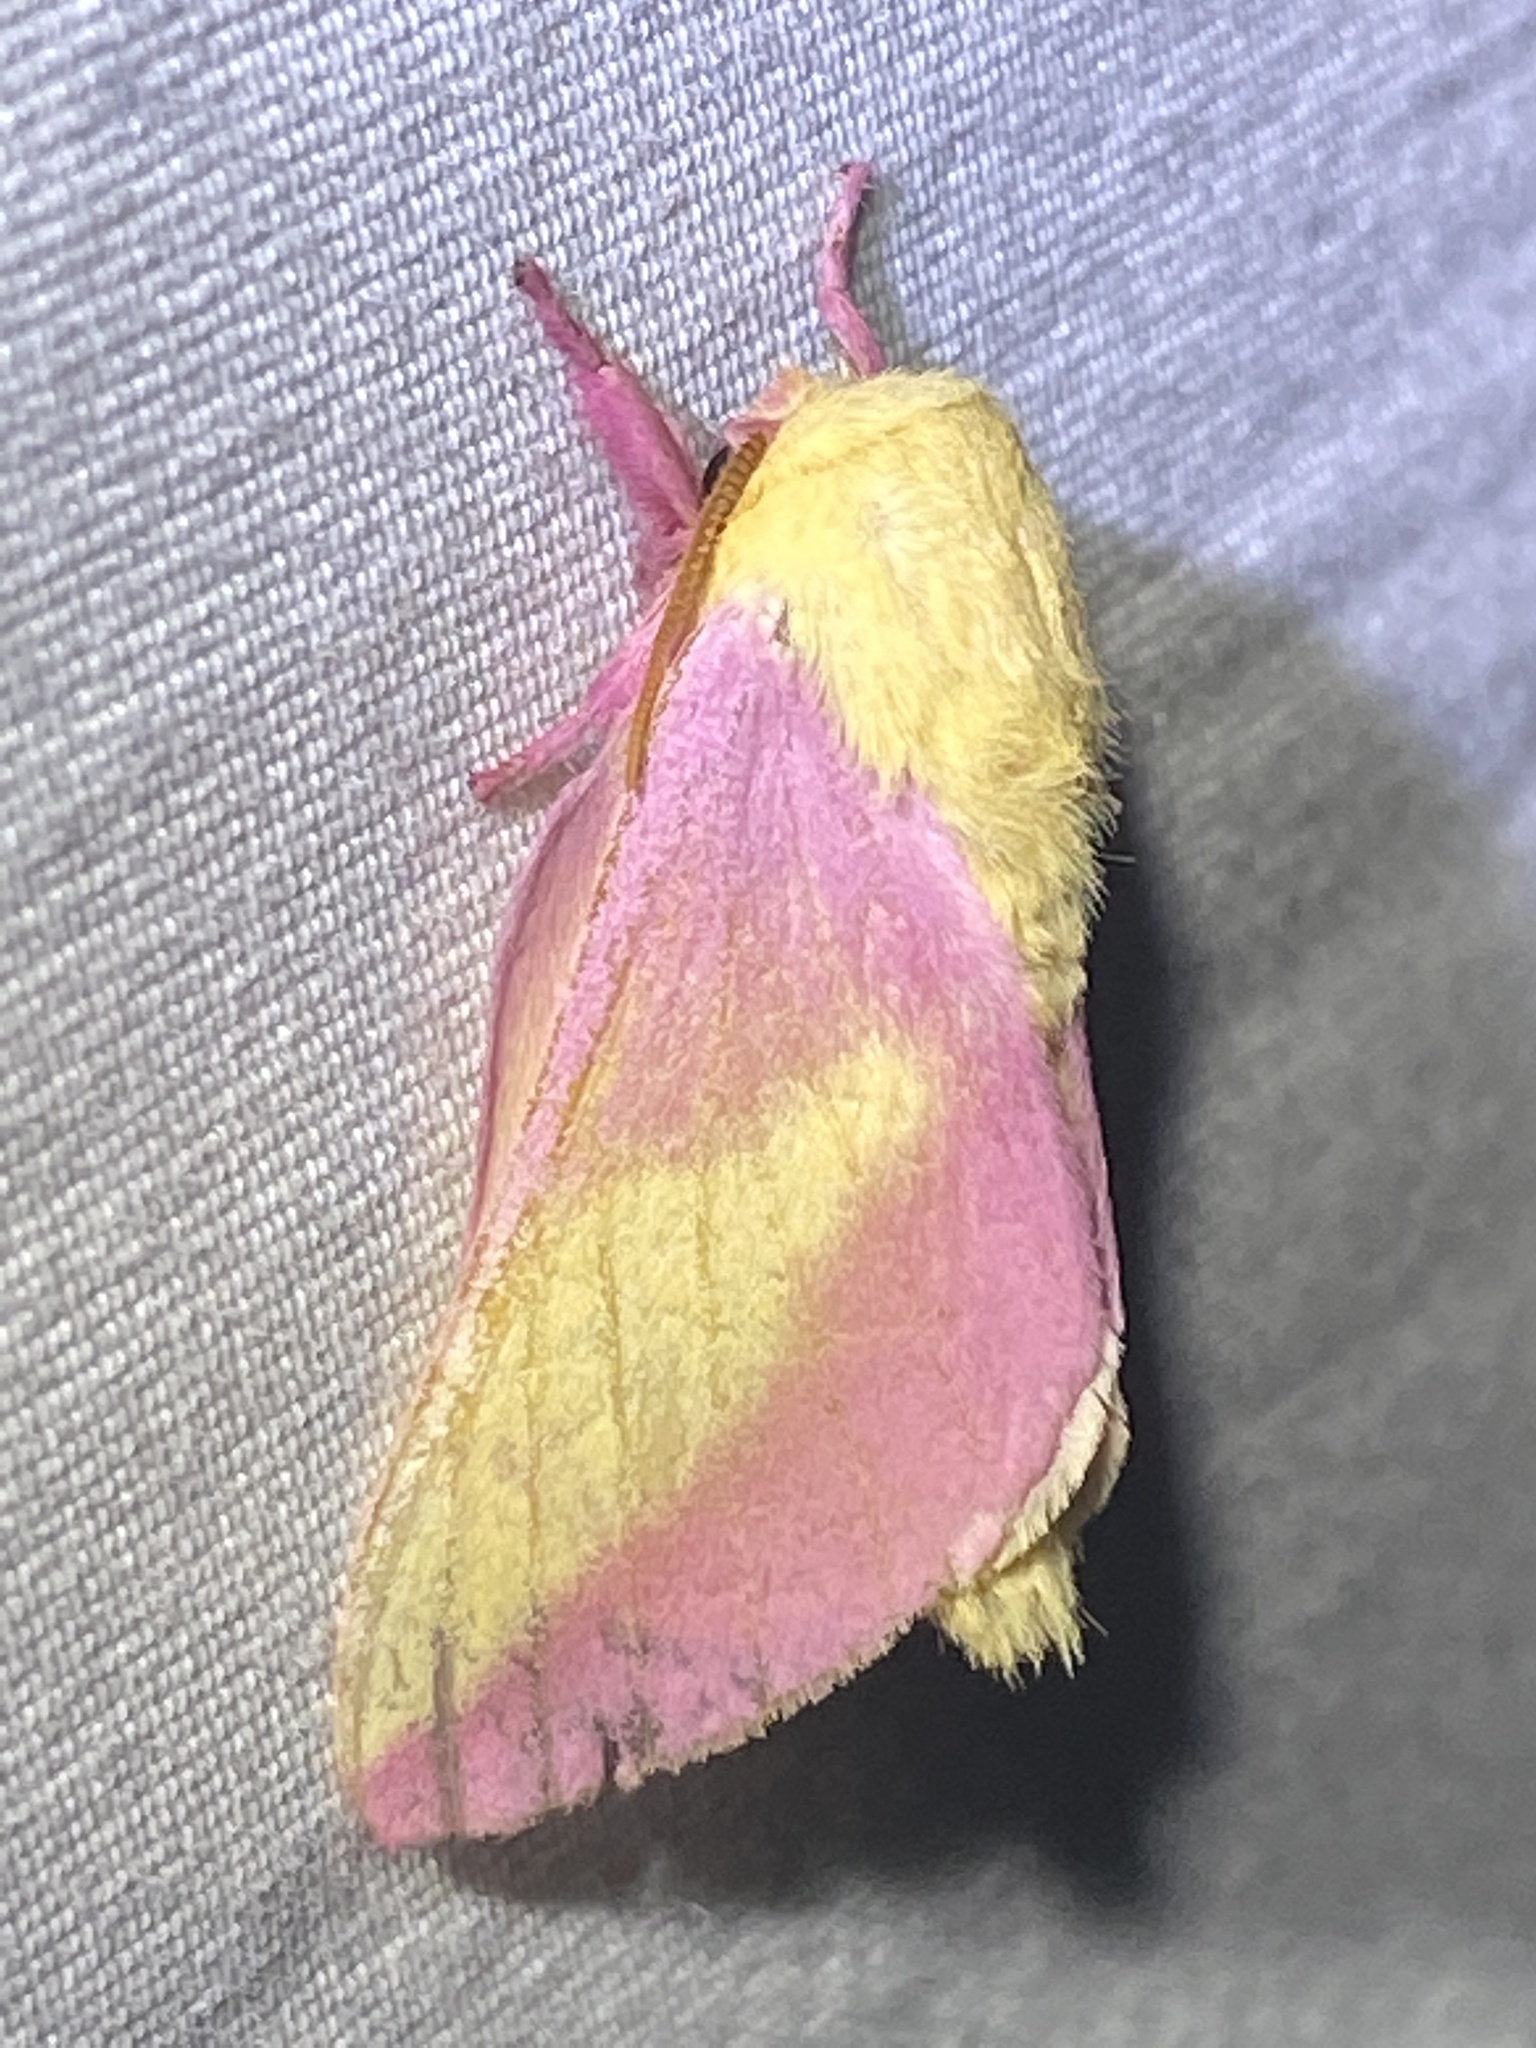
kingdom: Animalia
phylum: Arthropoda
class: Insecta
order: Lepidoptera
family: Saturniidae
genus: Dryocampa
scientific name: Dryocampa rubicunda
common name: Rosy maple moth
